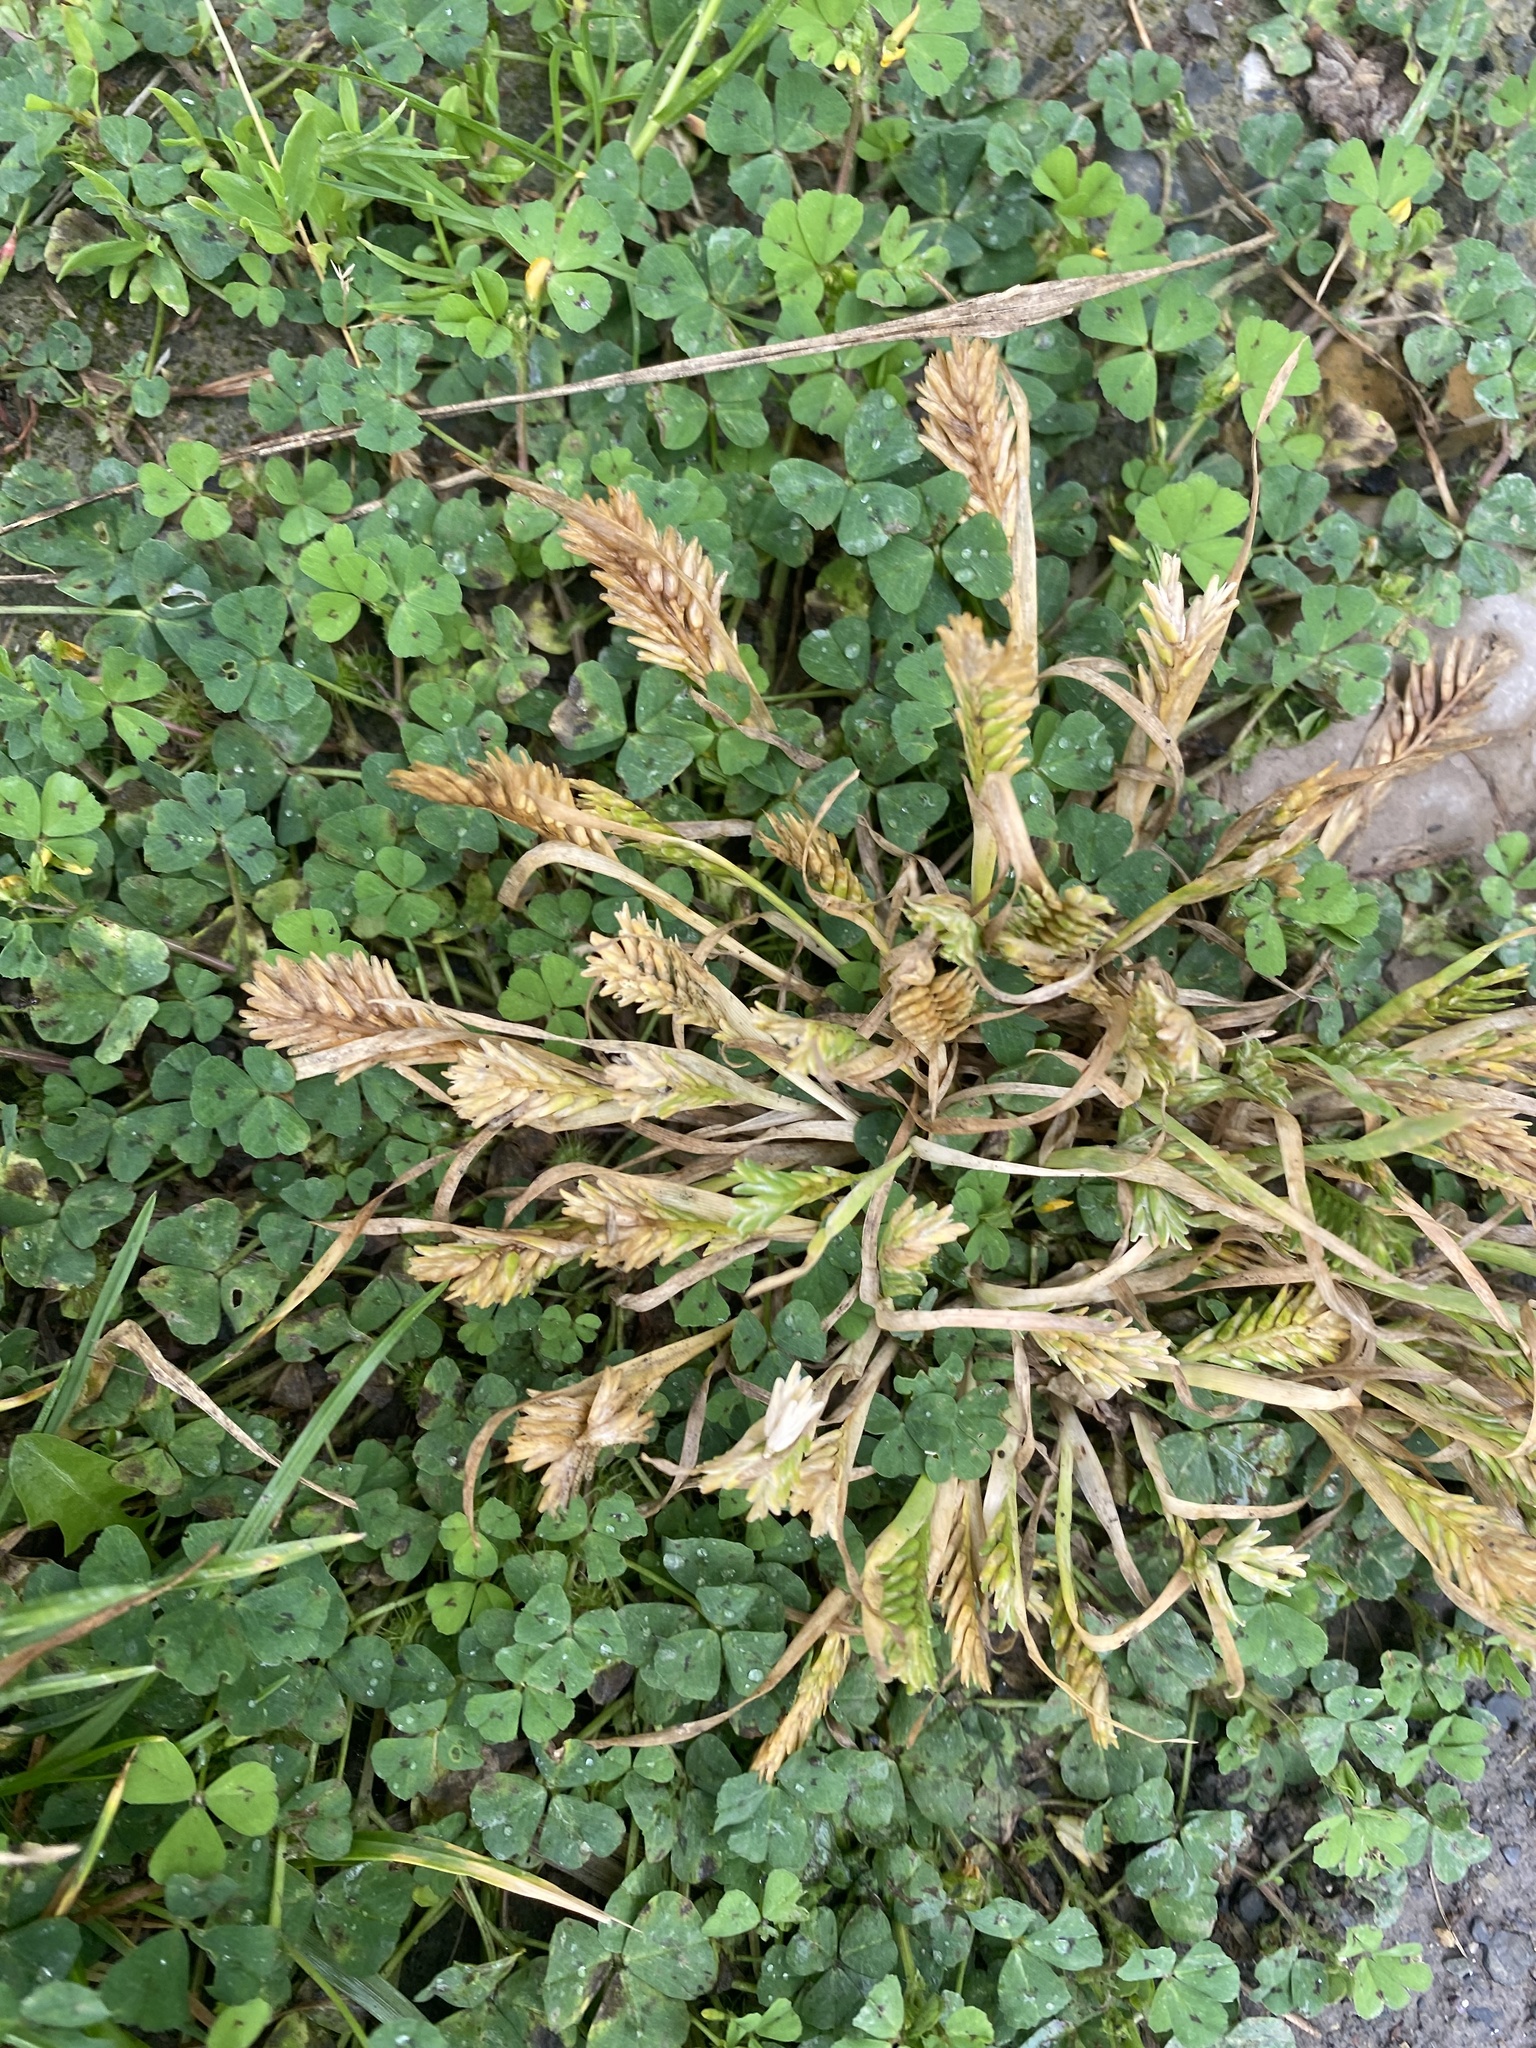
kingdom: Plantae
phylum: Tracheophyta
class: Liliopsida
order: Poales
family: Poaceae
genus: Sclerochloa
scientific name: Sclerochloa dura
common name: Common hardgrass
